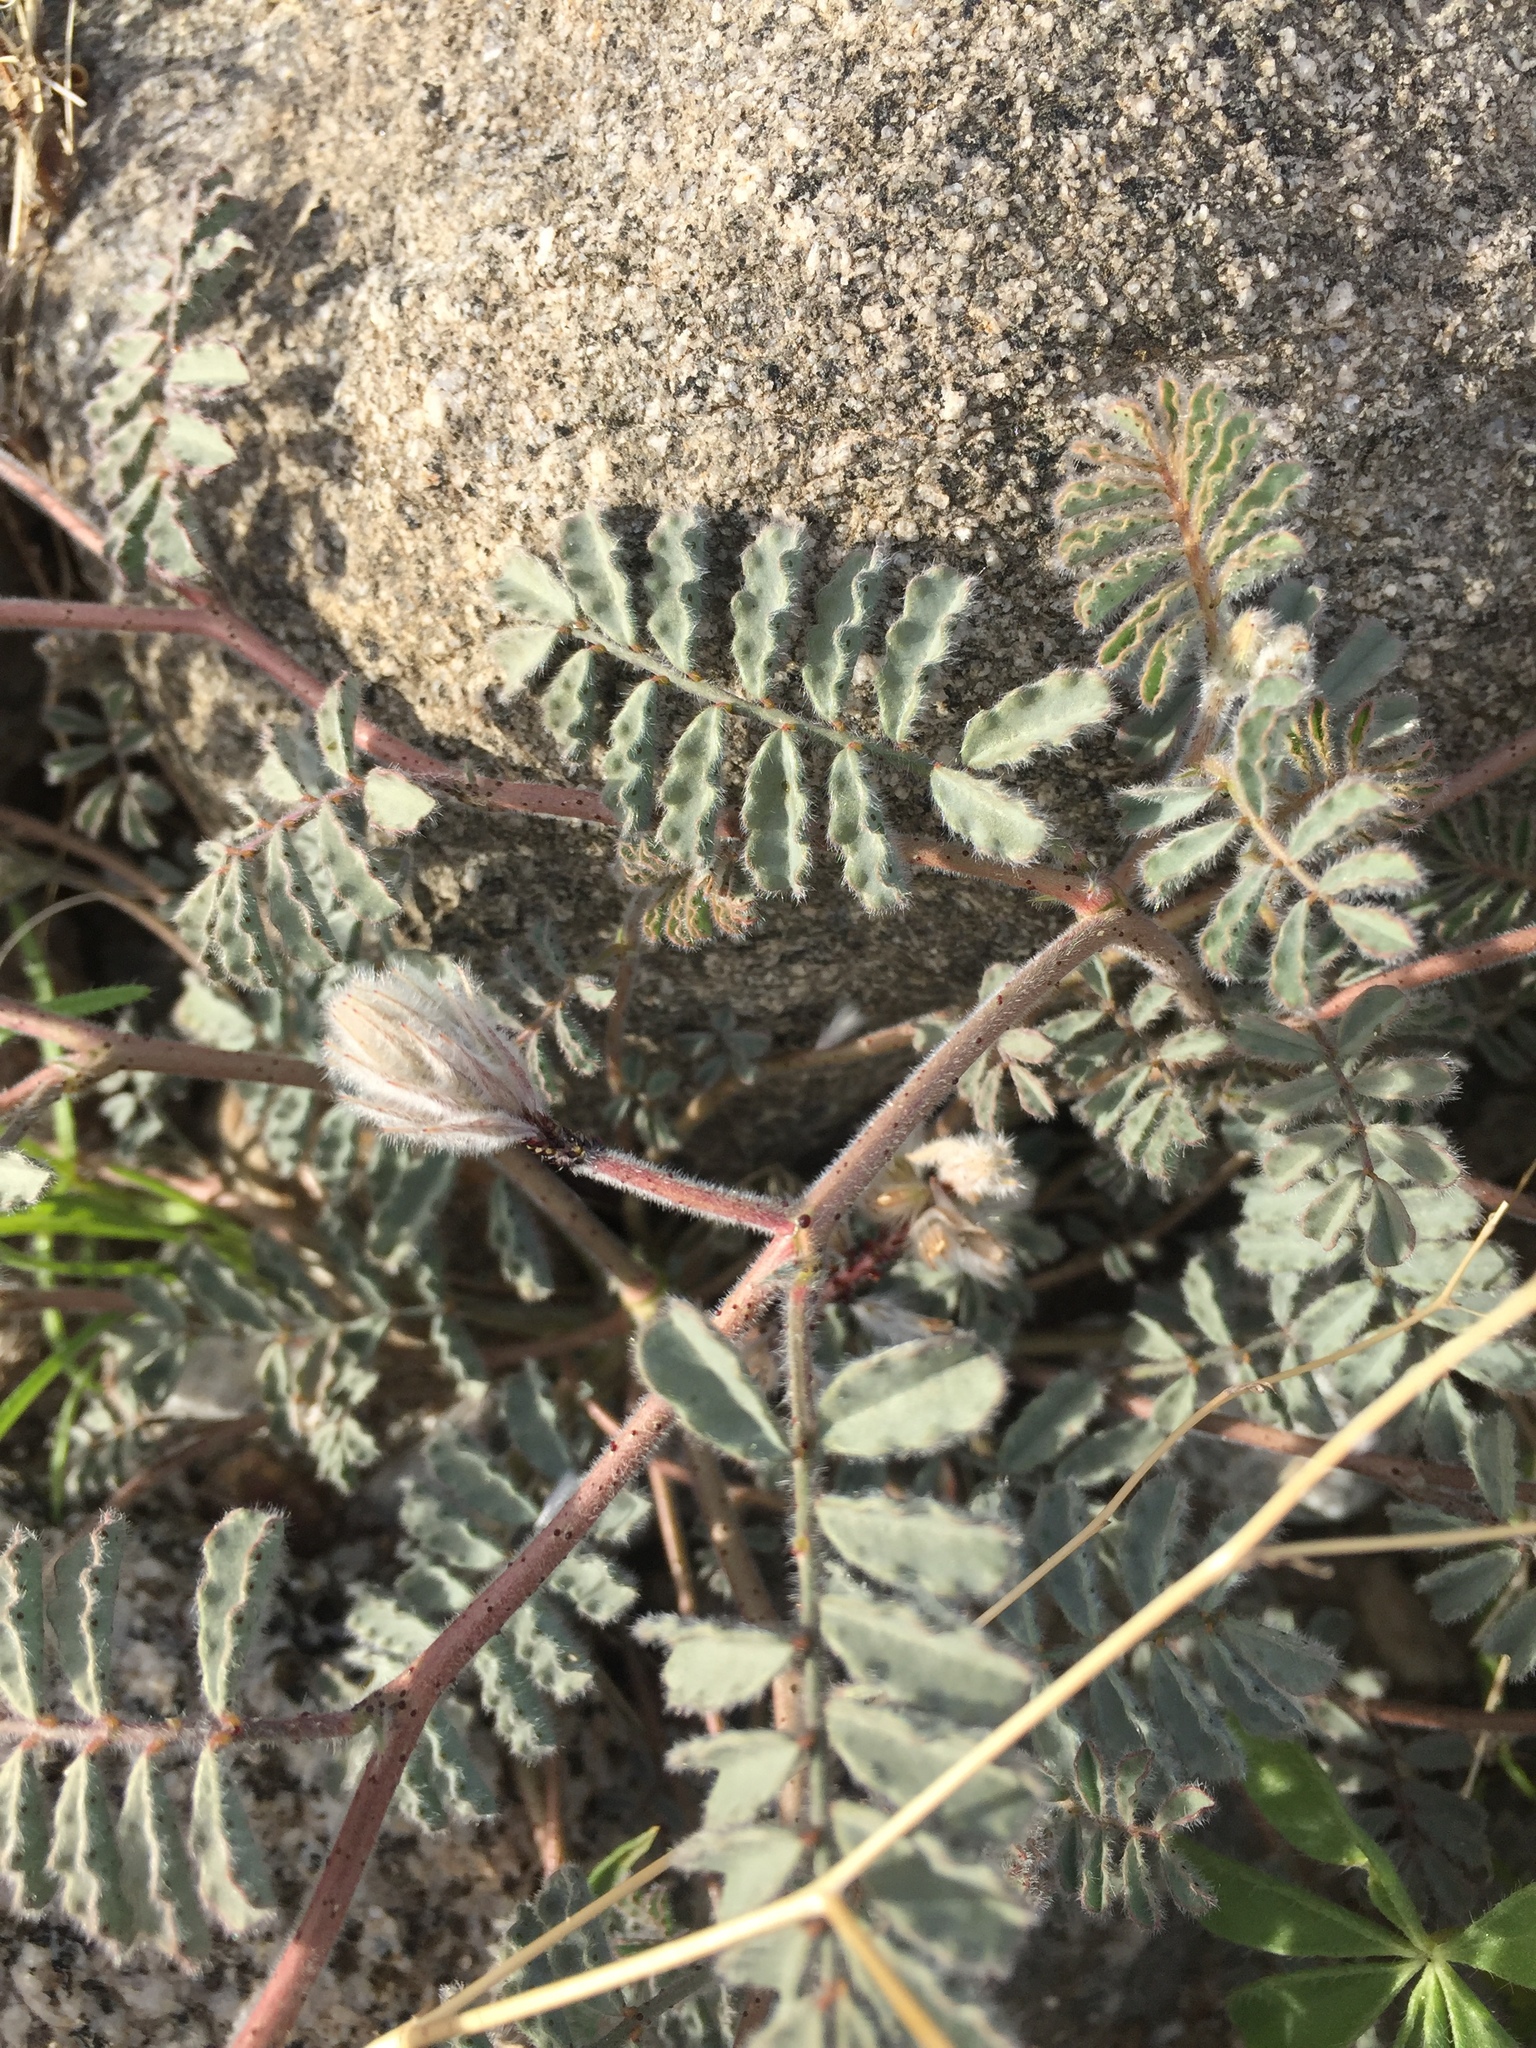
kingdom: Plantae
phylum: Tracheophyta
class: Magnoliopsida
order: Fabales
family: Fabaceae
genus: Dalea
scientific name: Dalea mollissima
